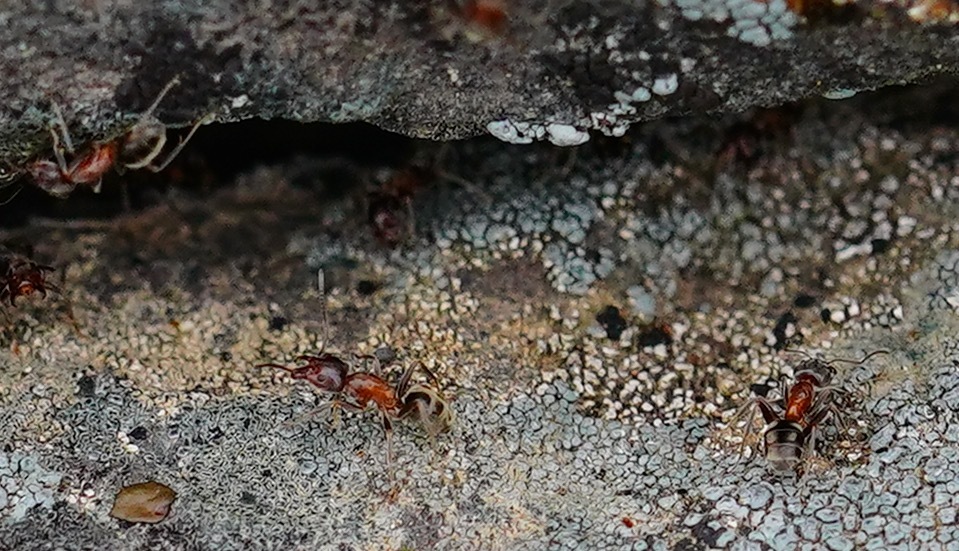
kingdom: Animalia
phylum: Arthropoda
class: Insecta
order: Hymenoptera
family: Formicidae
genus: Liometopum
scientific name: Liometopum occidentale
